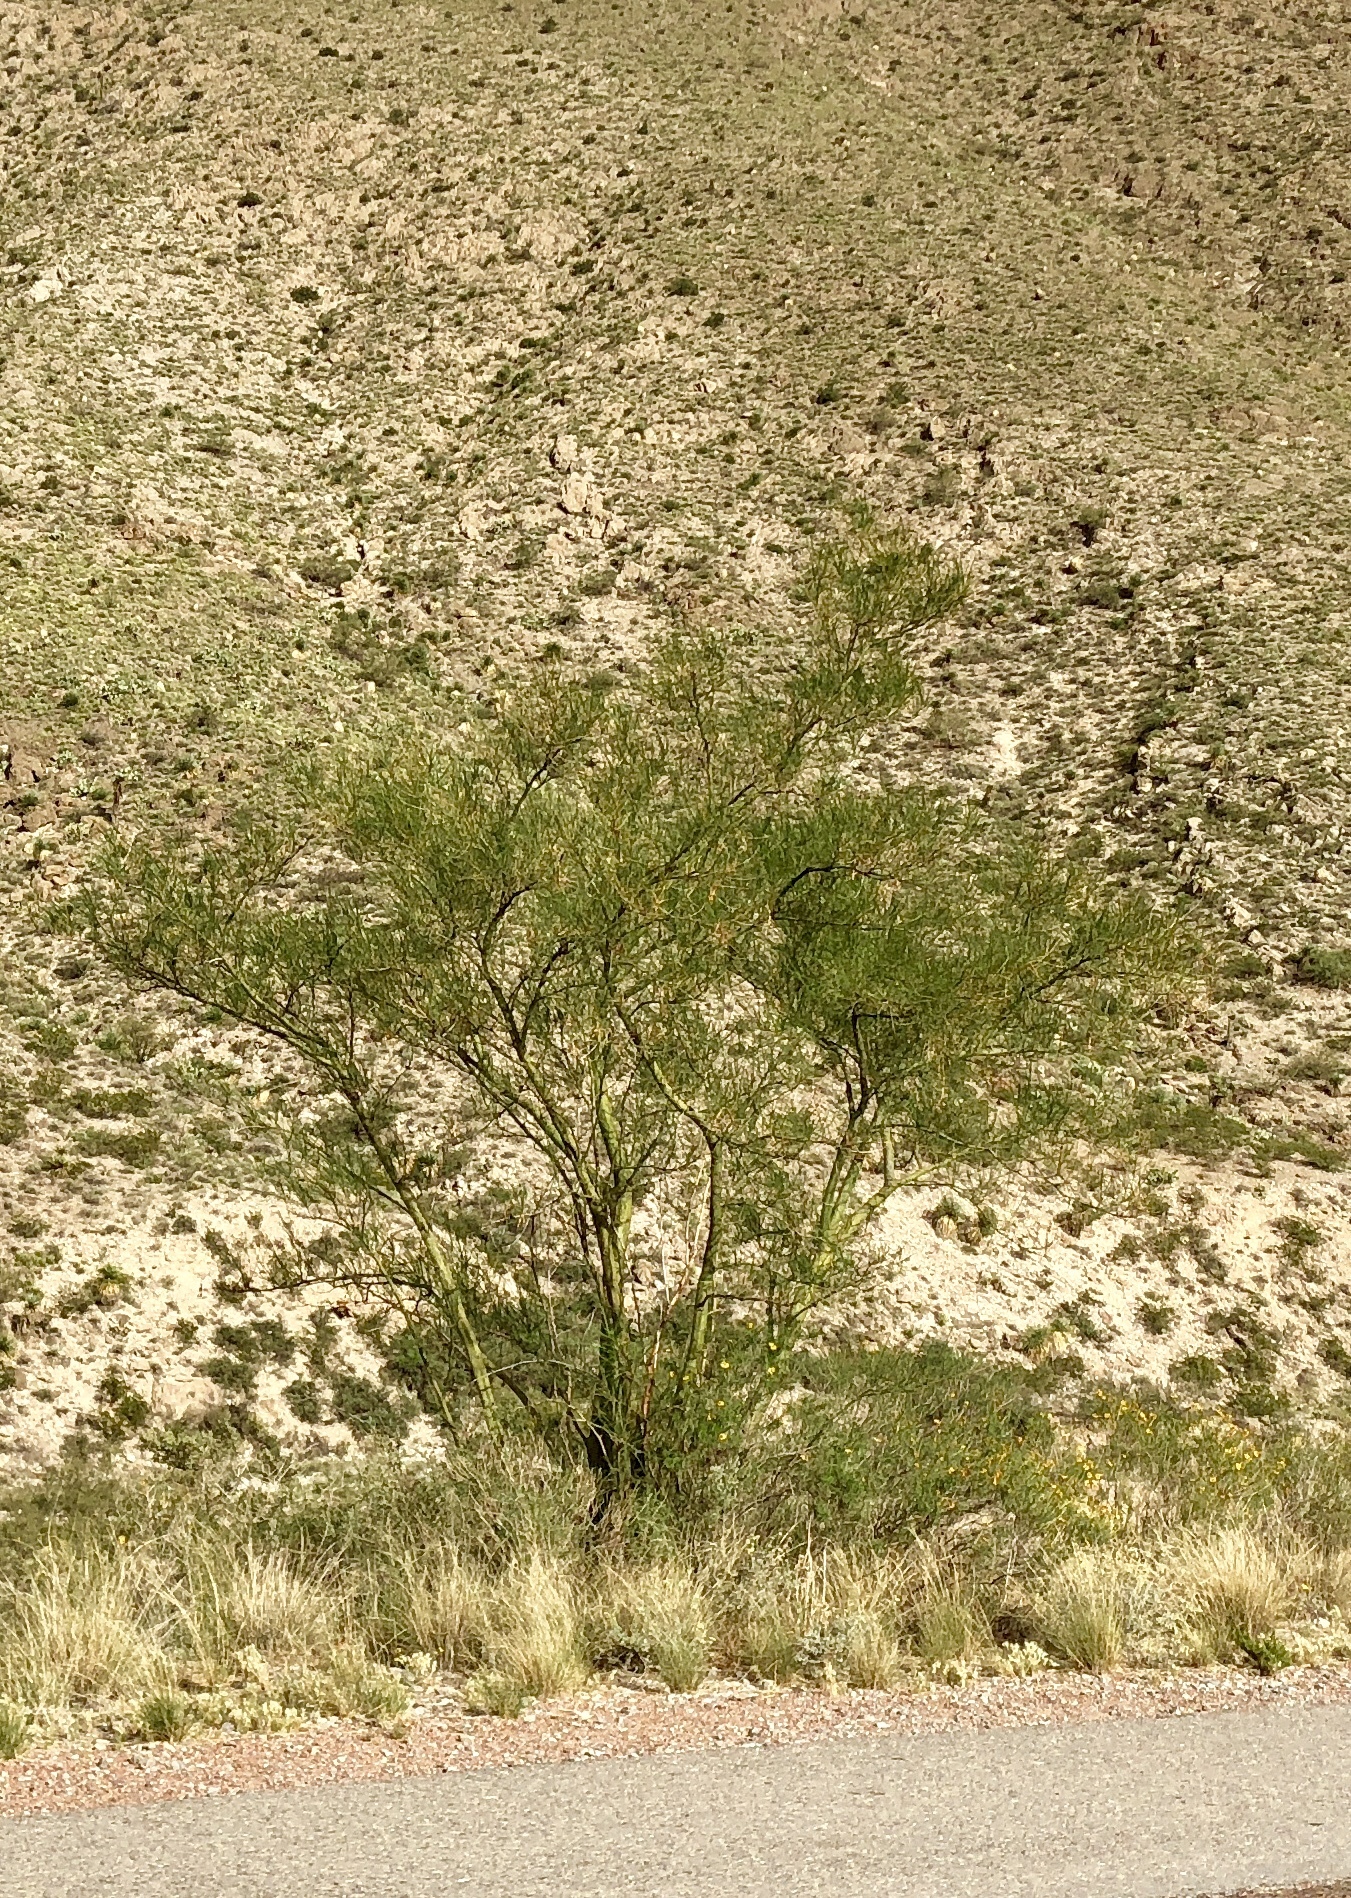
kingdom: Plantae
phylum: Tracheophyta
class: Magnoliopsida
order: Fabales
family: Fabaceae
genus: Parkinsonia
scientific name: Parkinsonia aculeata
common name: Jerusalem thorn
